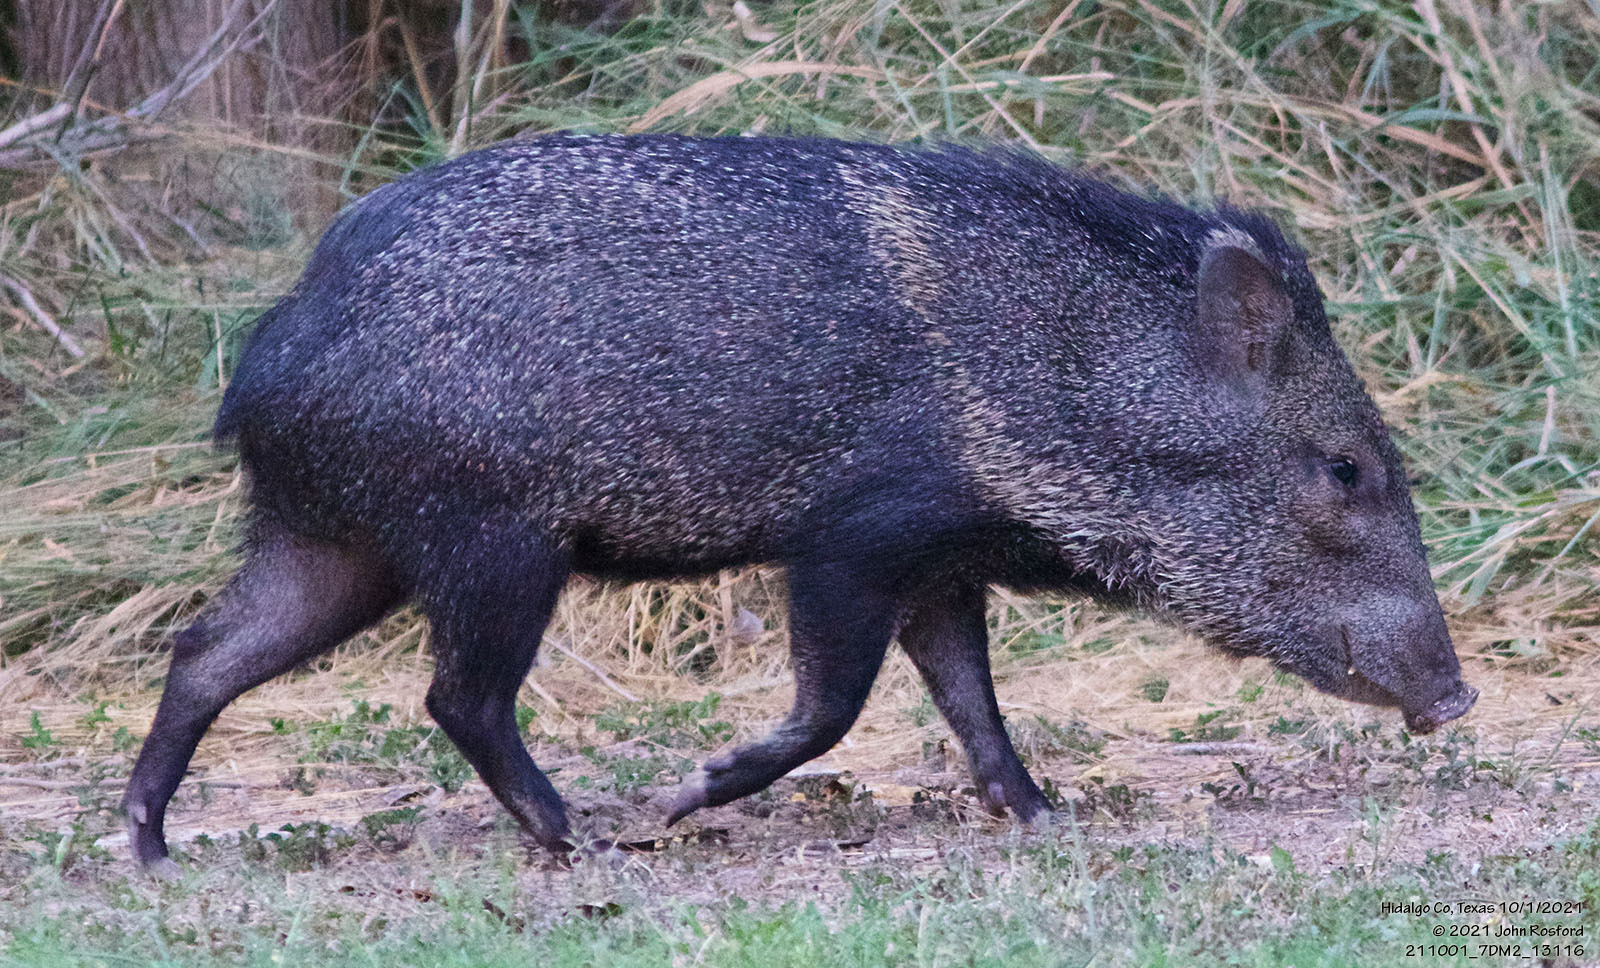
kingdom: Animalia
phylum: Chordata
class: Mammalia
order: Artiodactyla
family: Tayassuidae
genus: Pecari
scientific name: Pecari tajacu
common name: Collared peccary
